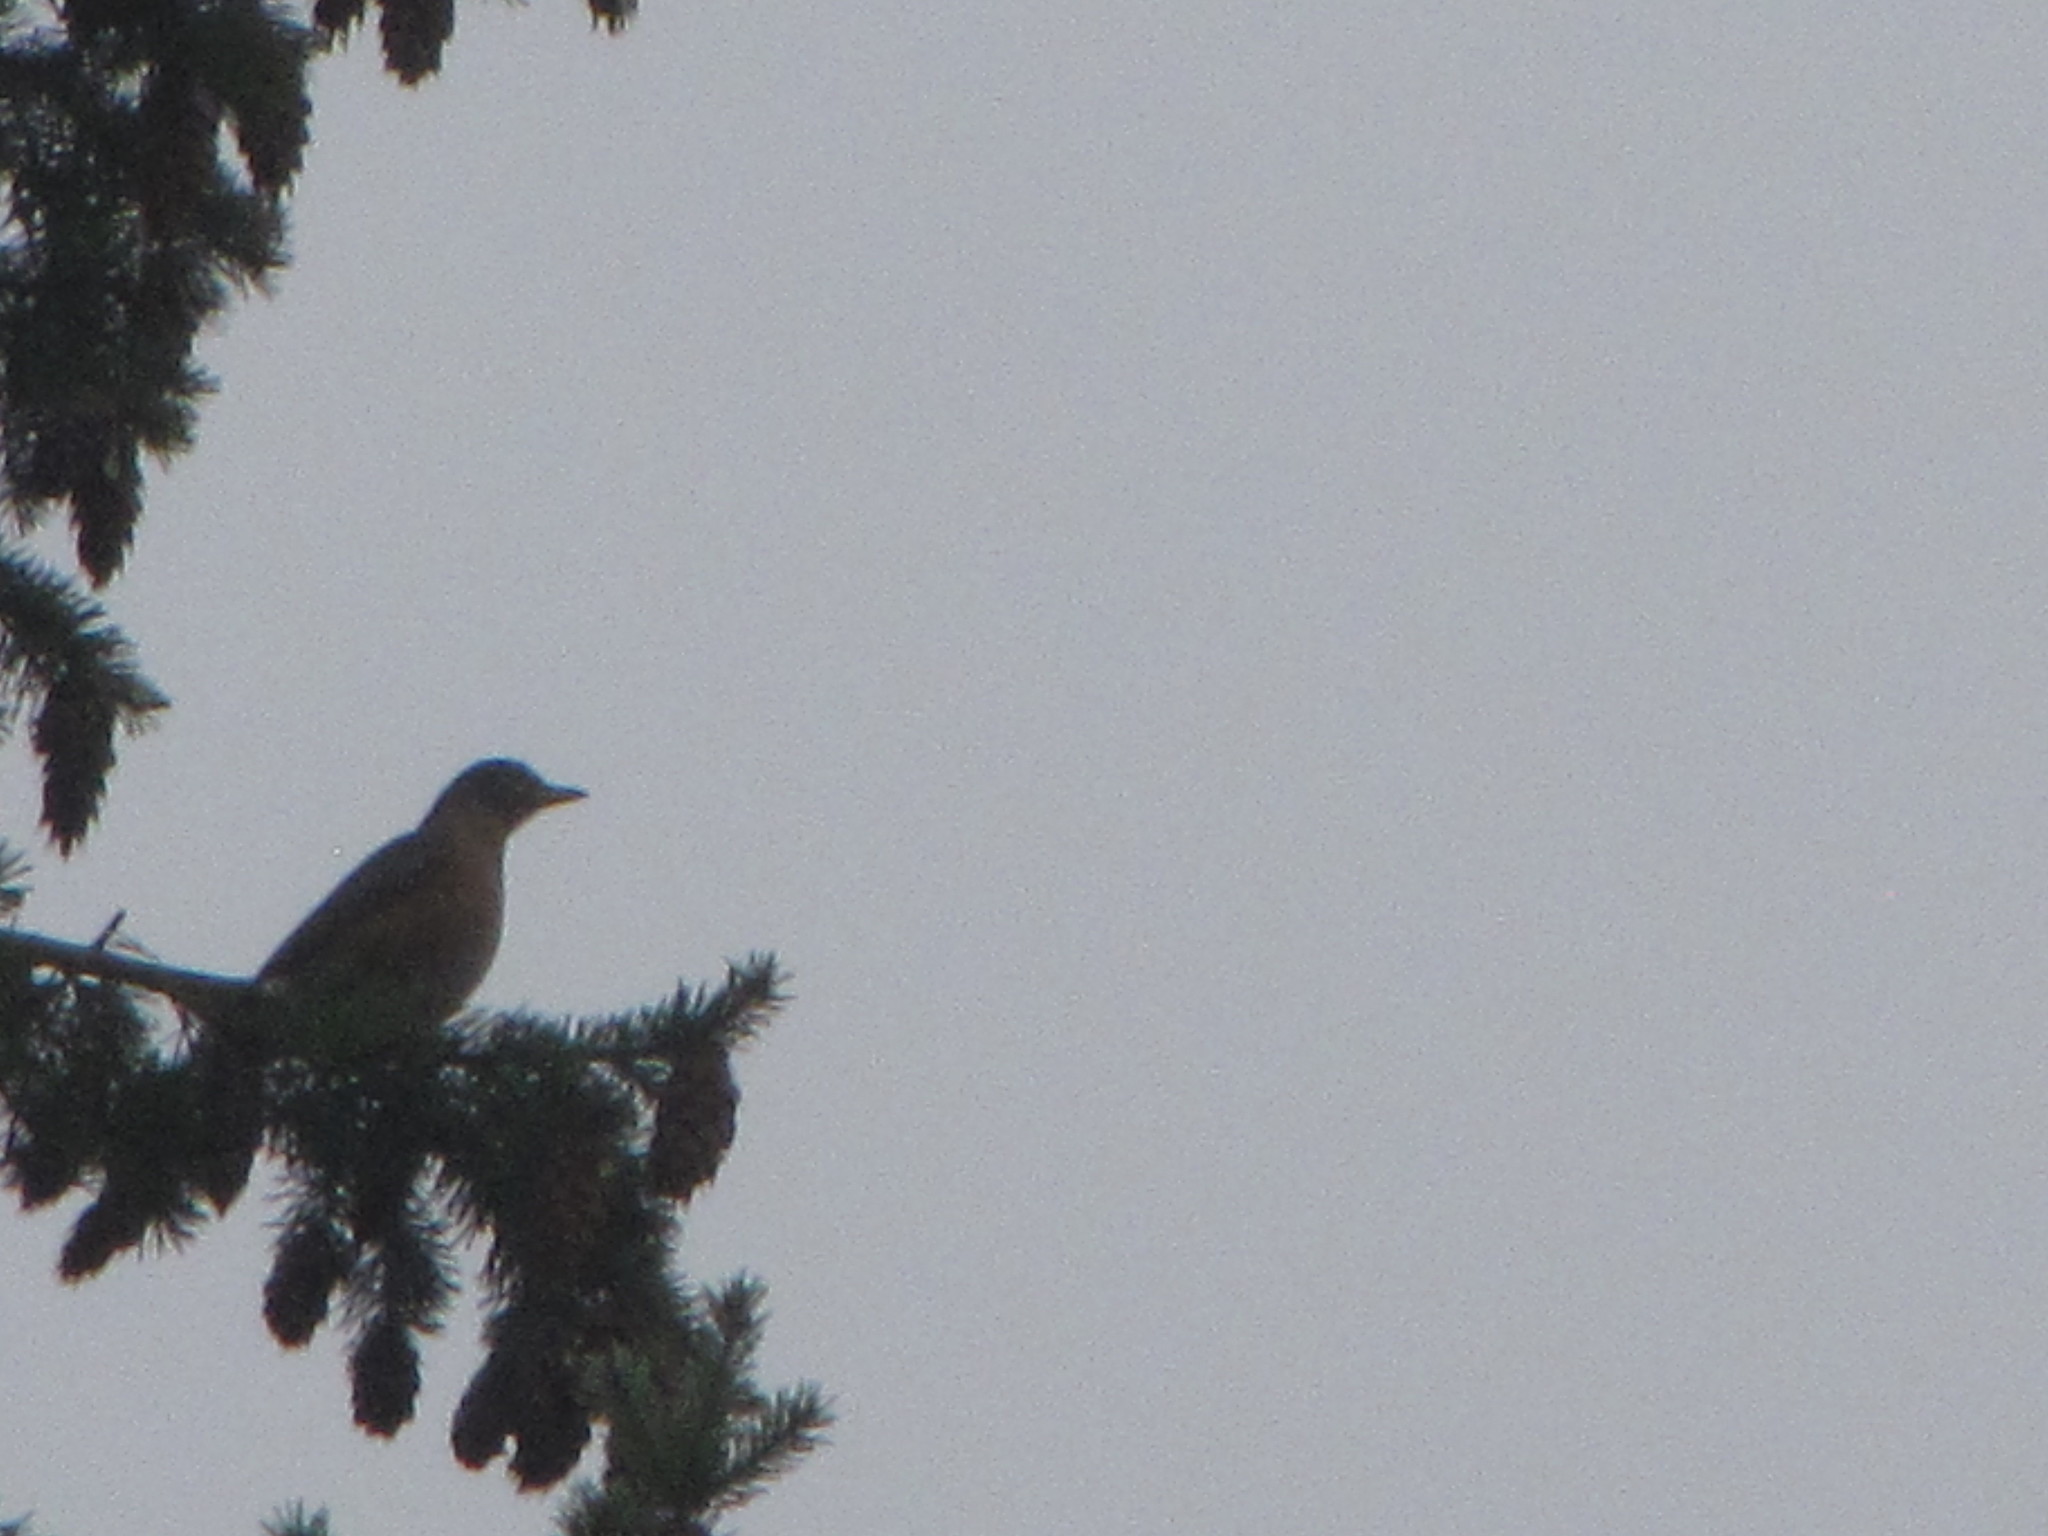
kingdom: Animalia
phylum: Chordata
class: Aves
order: Passeriformes
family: Turdidae
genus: Turdus
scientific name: Turdus migratorius
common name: American robin
